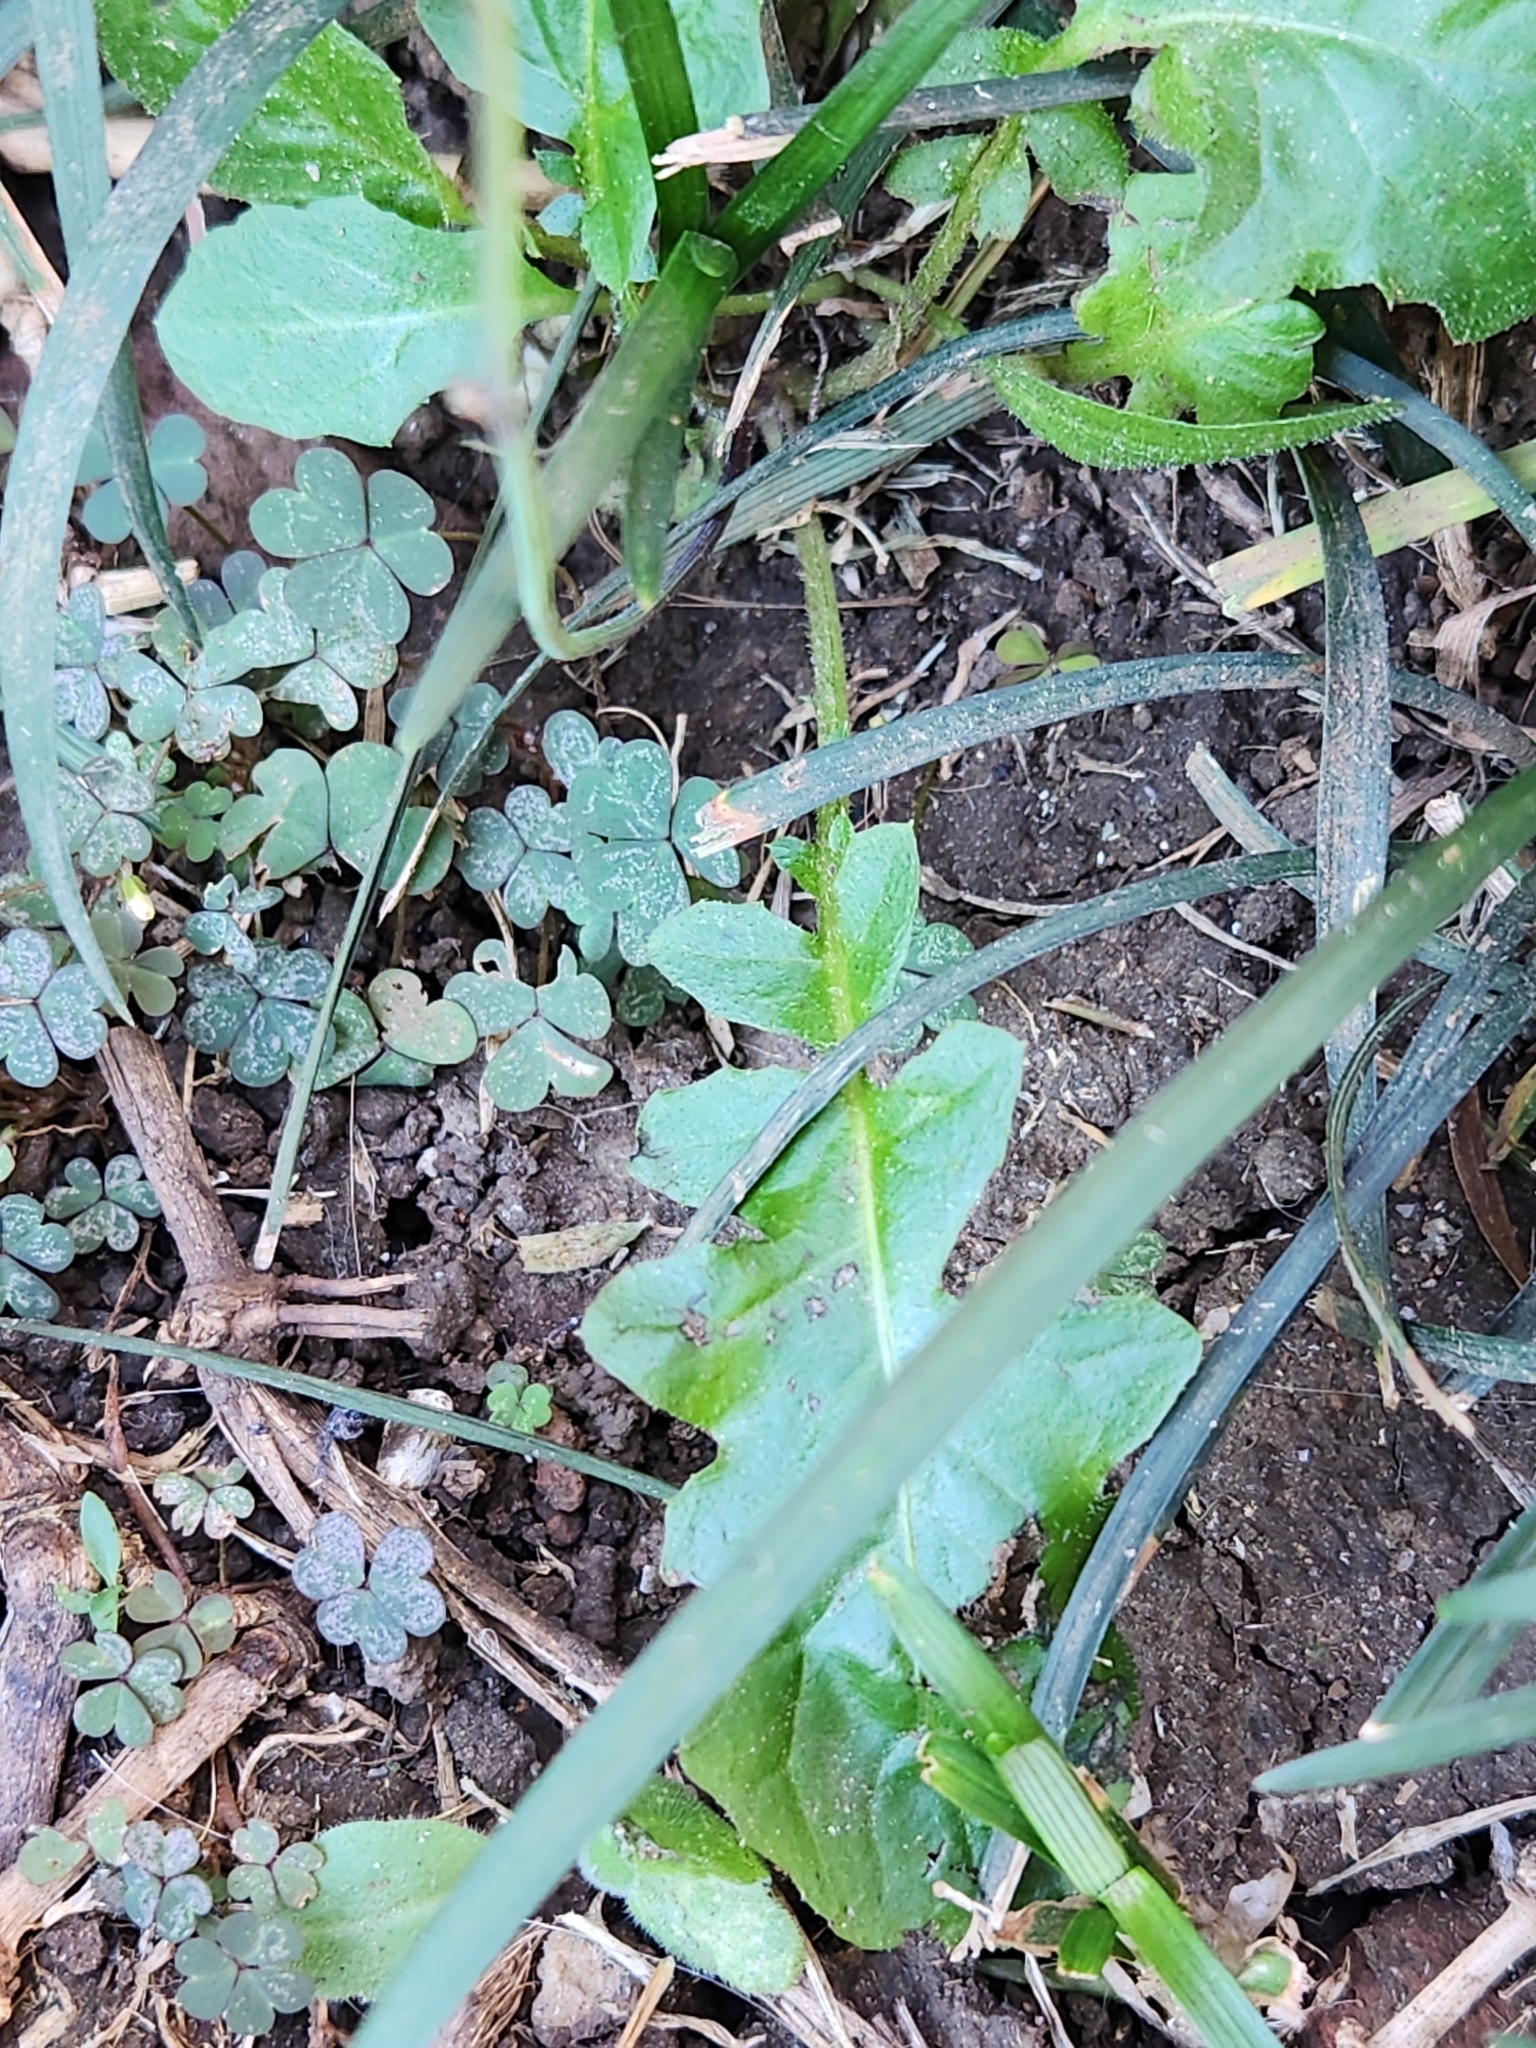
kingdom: Plantae
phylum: Tracheophyta
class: Magnoliopsida
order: Asterales
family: Asteraceae
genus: Youngia
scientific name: Youngia japonica
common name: Oriental false hawksbeard
